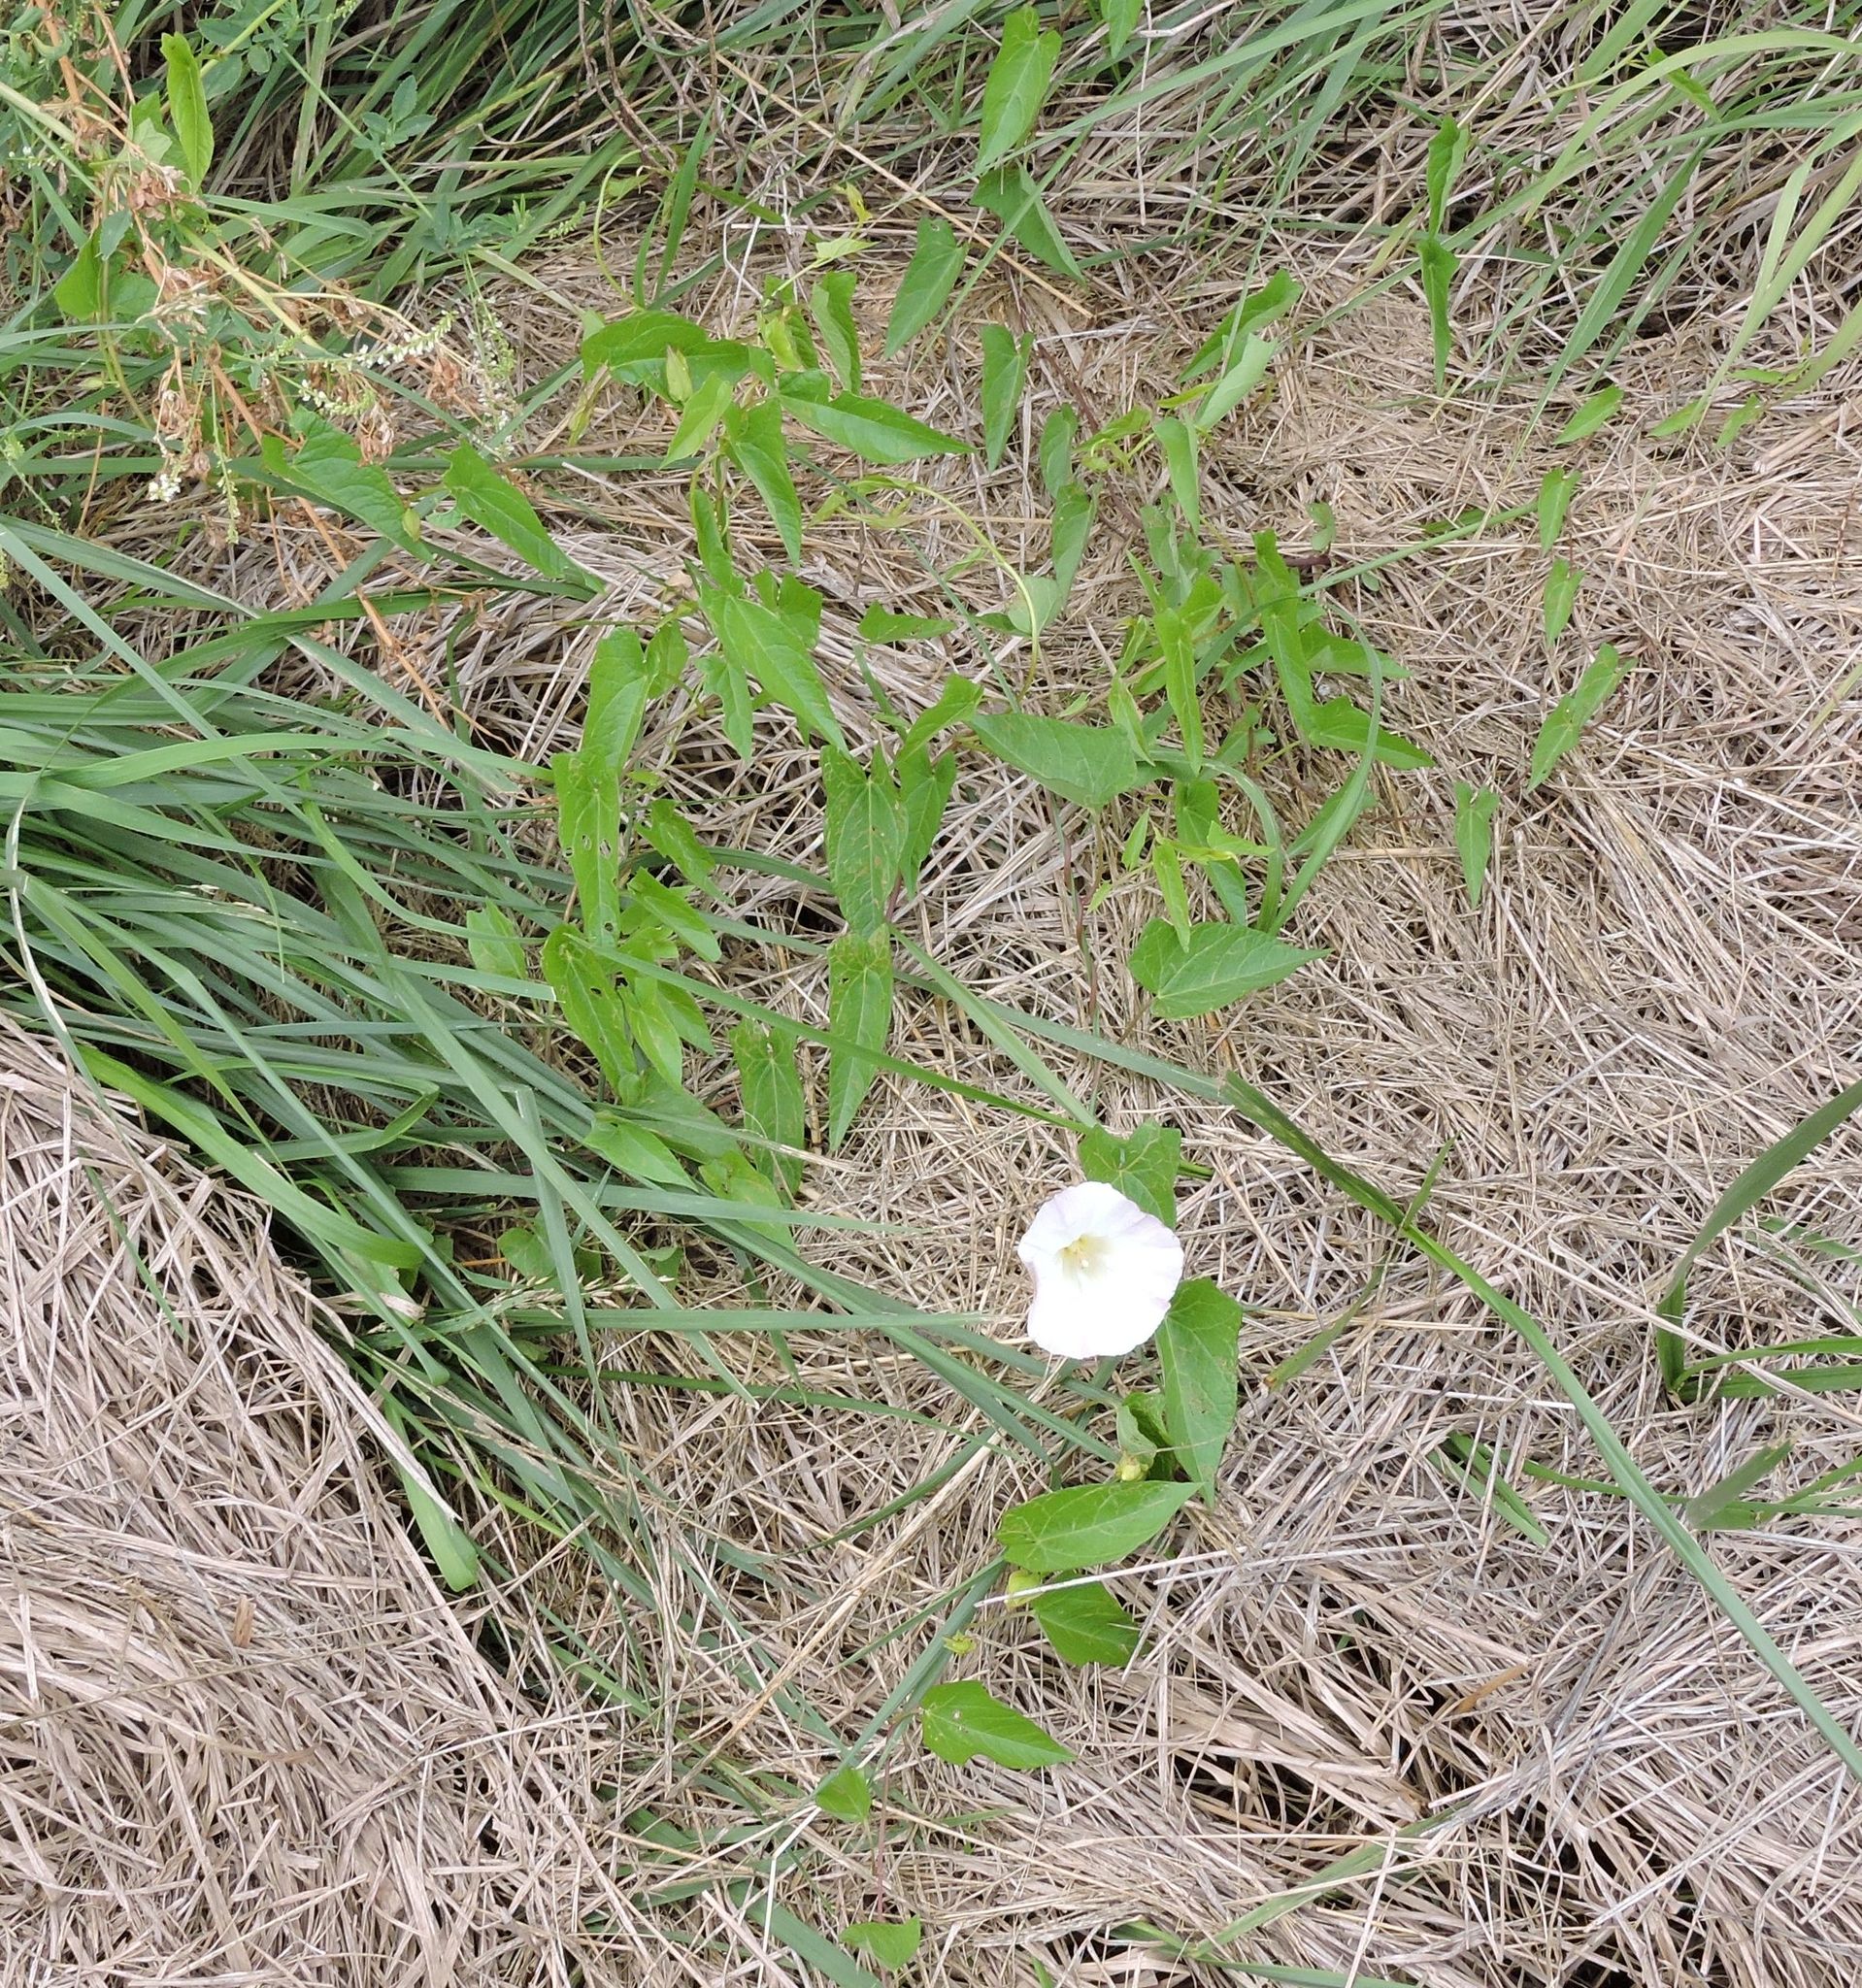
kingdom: Plantae
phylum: Tracheophyta
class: Magnoliopsida
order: Solanales
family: Convolvulaceae
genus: Calystegia
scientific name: Calystegia sepium
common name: Hedge bindweed
